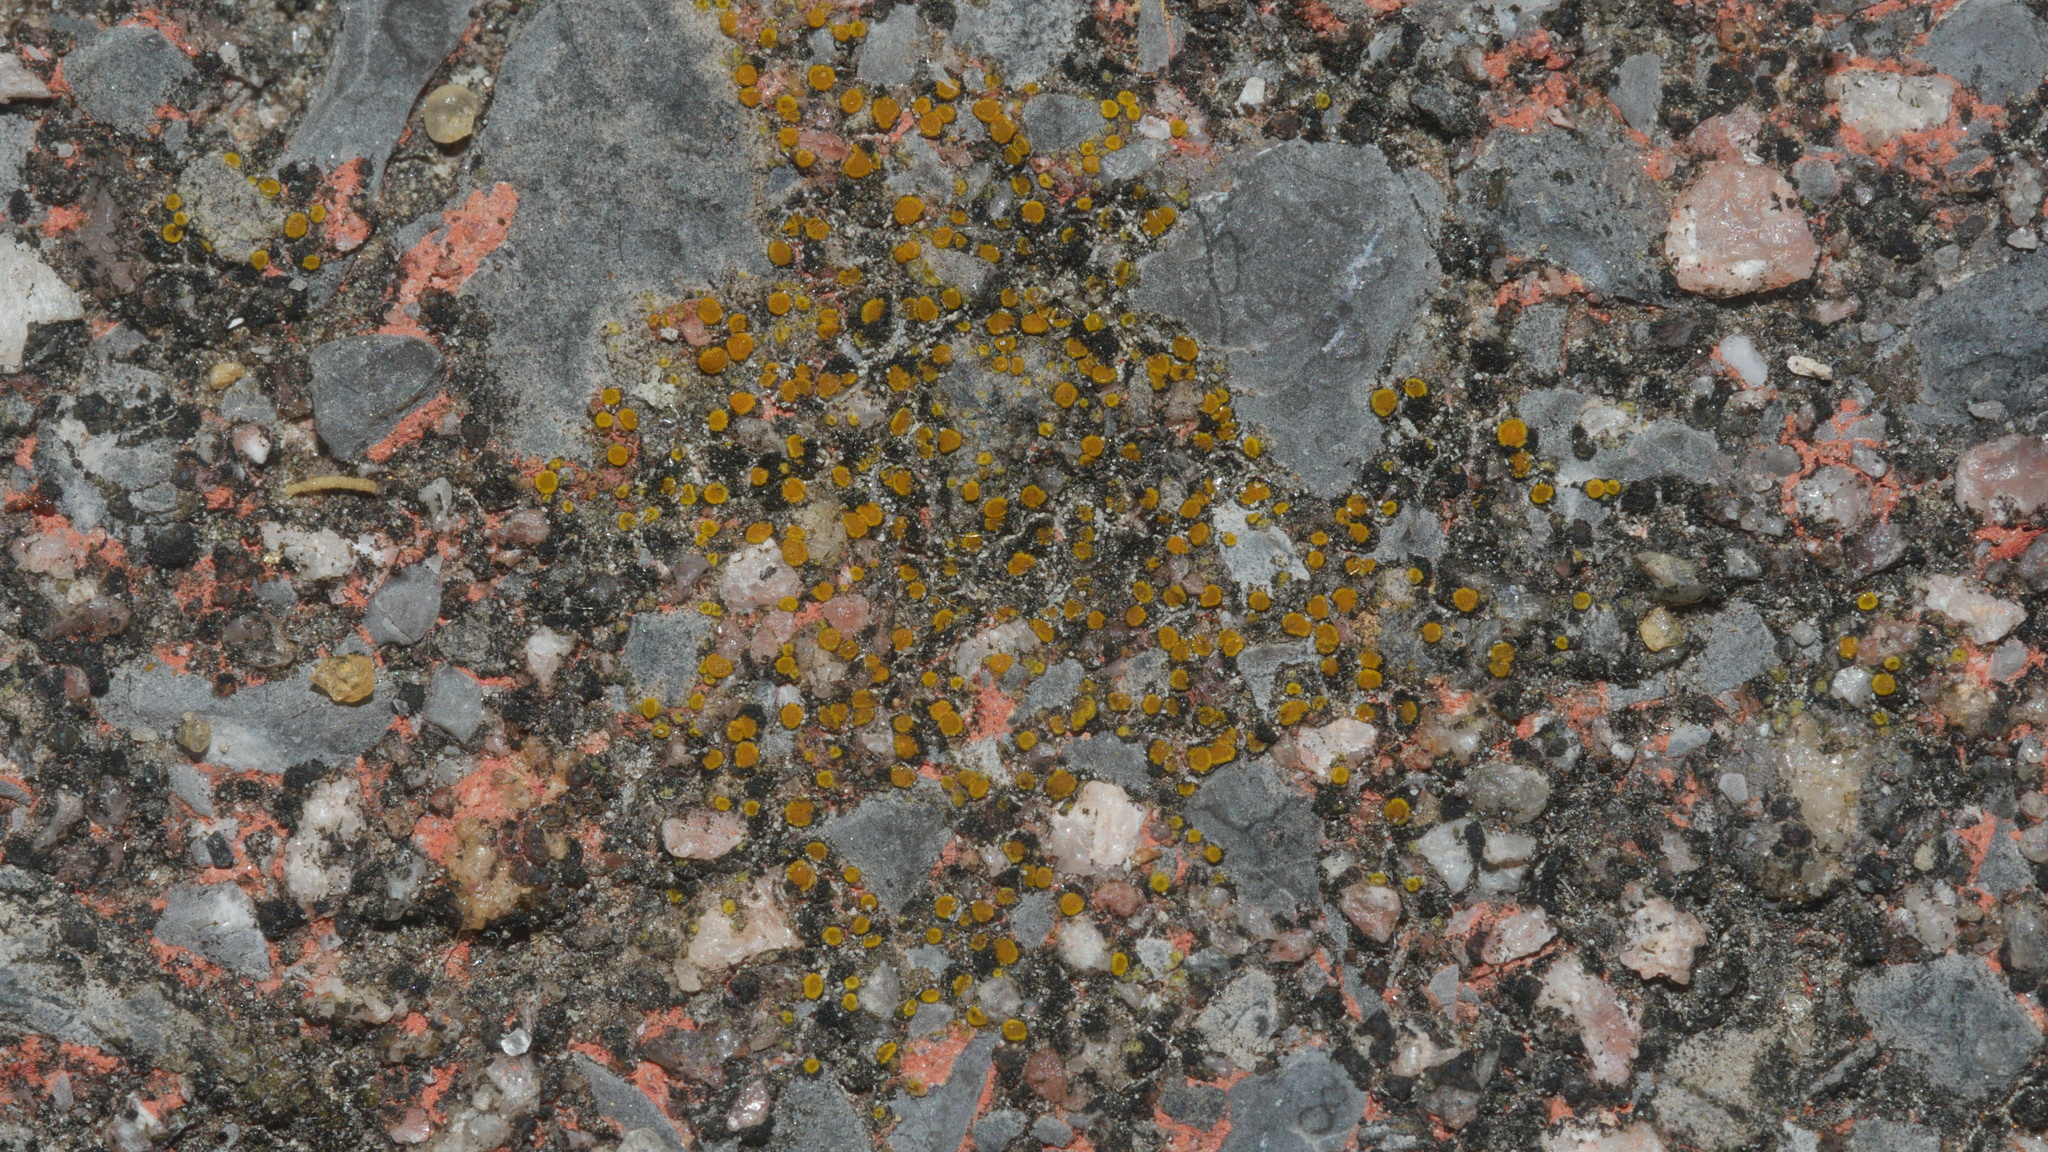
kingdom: Fungi
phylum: Ascomycota
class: Lecanoromycetes
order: Teloschistales
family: Teloschistaceae
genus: Xanthocarpia
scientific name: Xanthocarpia feracissima
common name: Sidewalk firedot
